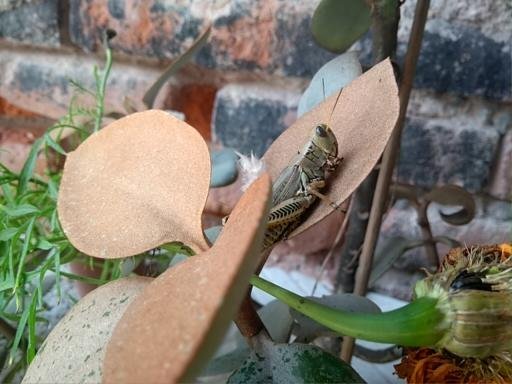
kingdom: Animalia
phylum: Arthropoda
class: Insecta
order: Orthoptera
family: Acrididae
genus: Melanoplus
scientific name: Melanoplus differentialis
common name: Differential grasshopper
